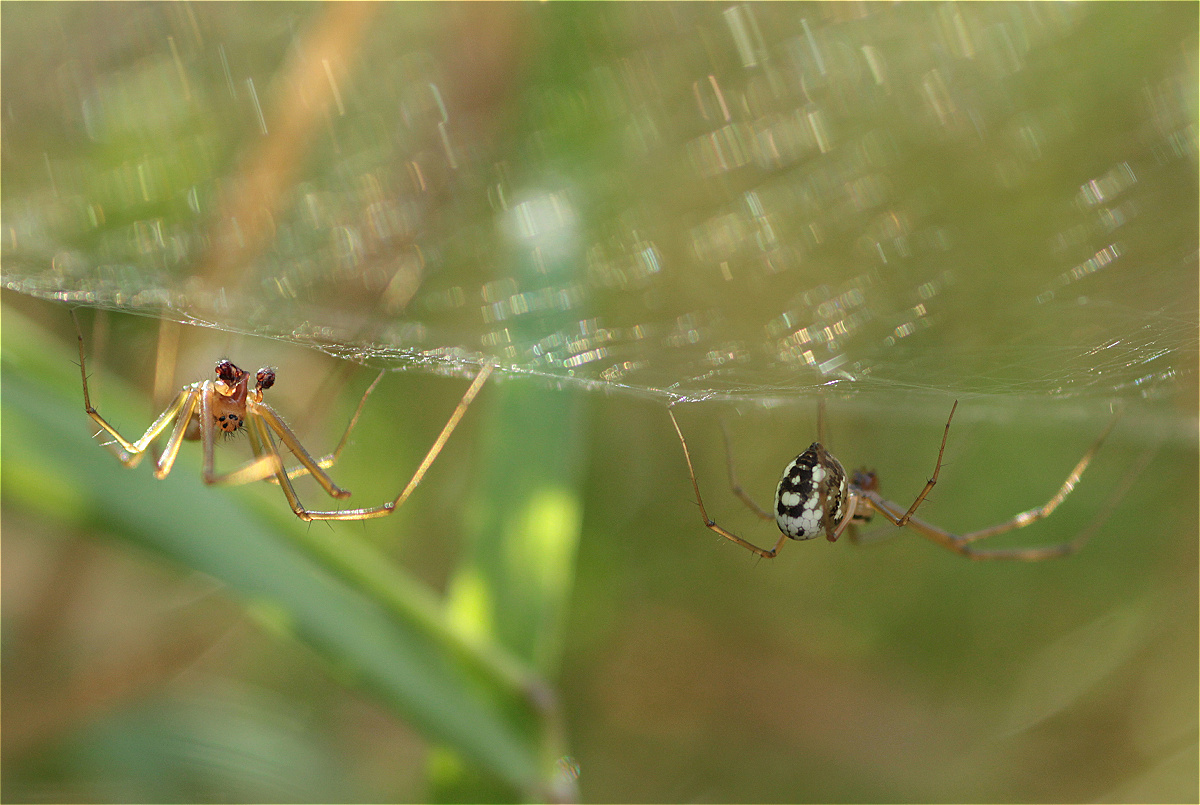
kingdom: Animalia
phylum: Arthropoda
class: Arachnida
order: Araneae
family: Linyphiidae
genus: Floronia
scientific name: Floronia bucculenta
